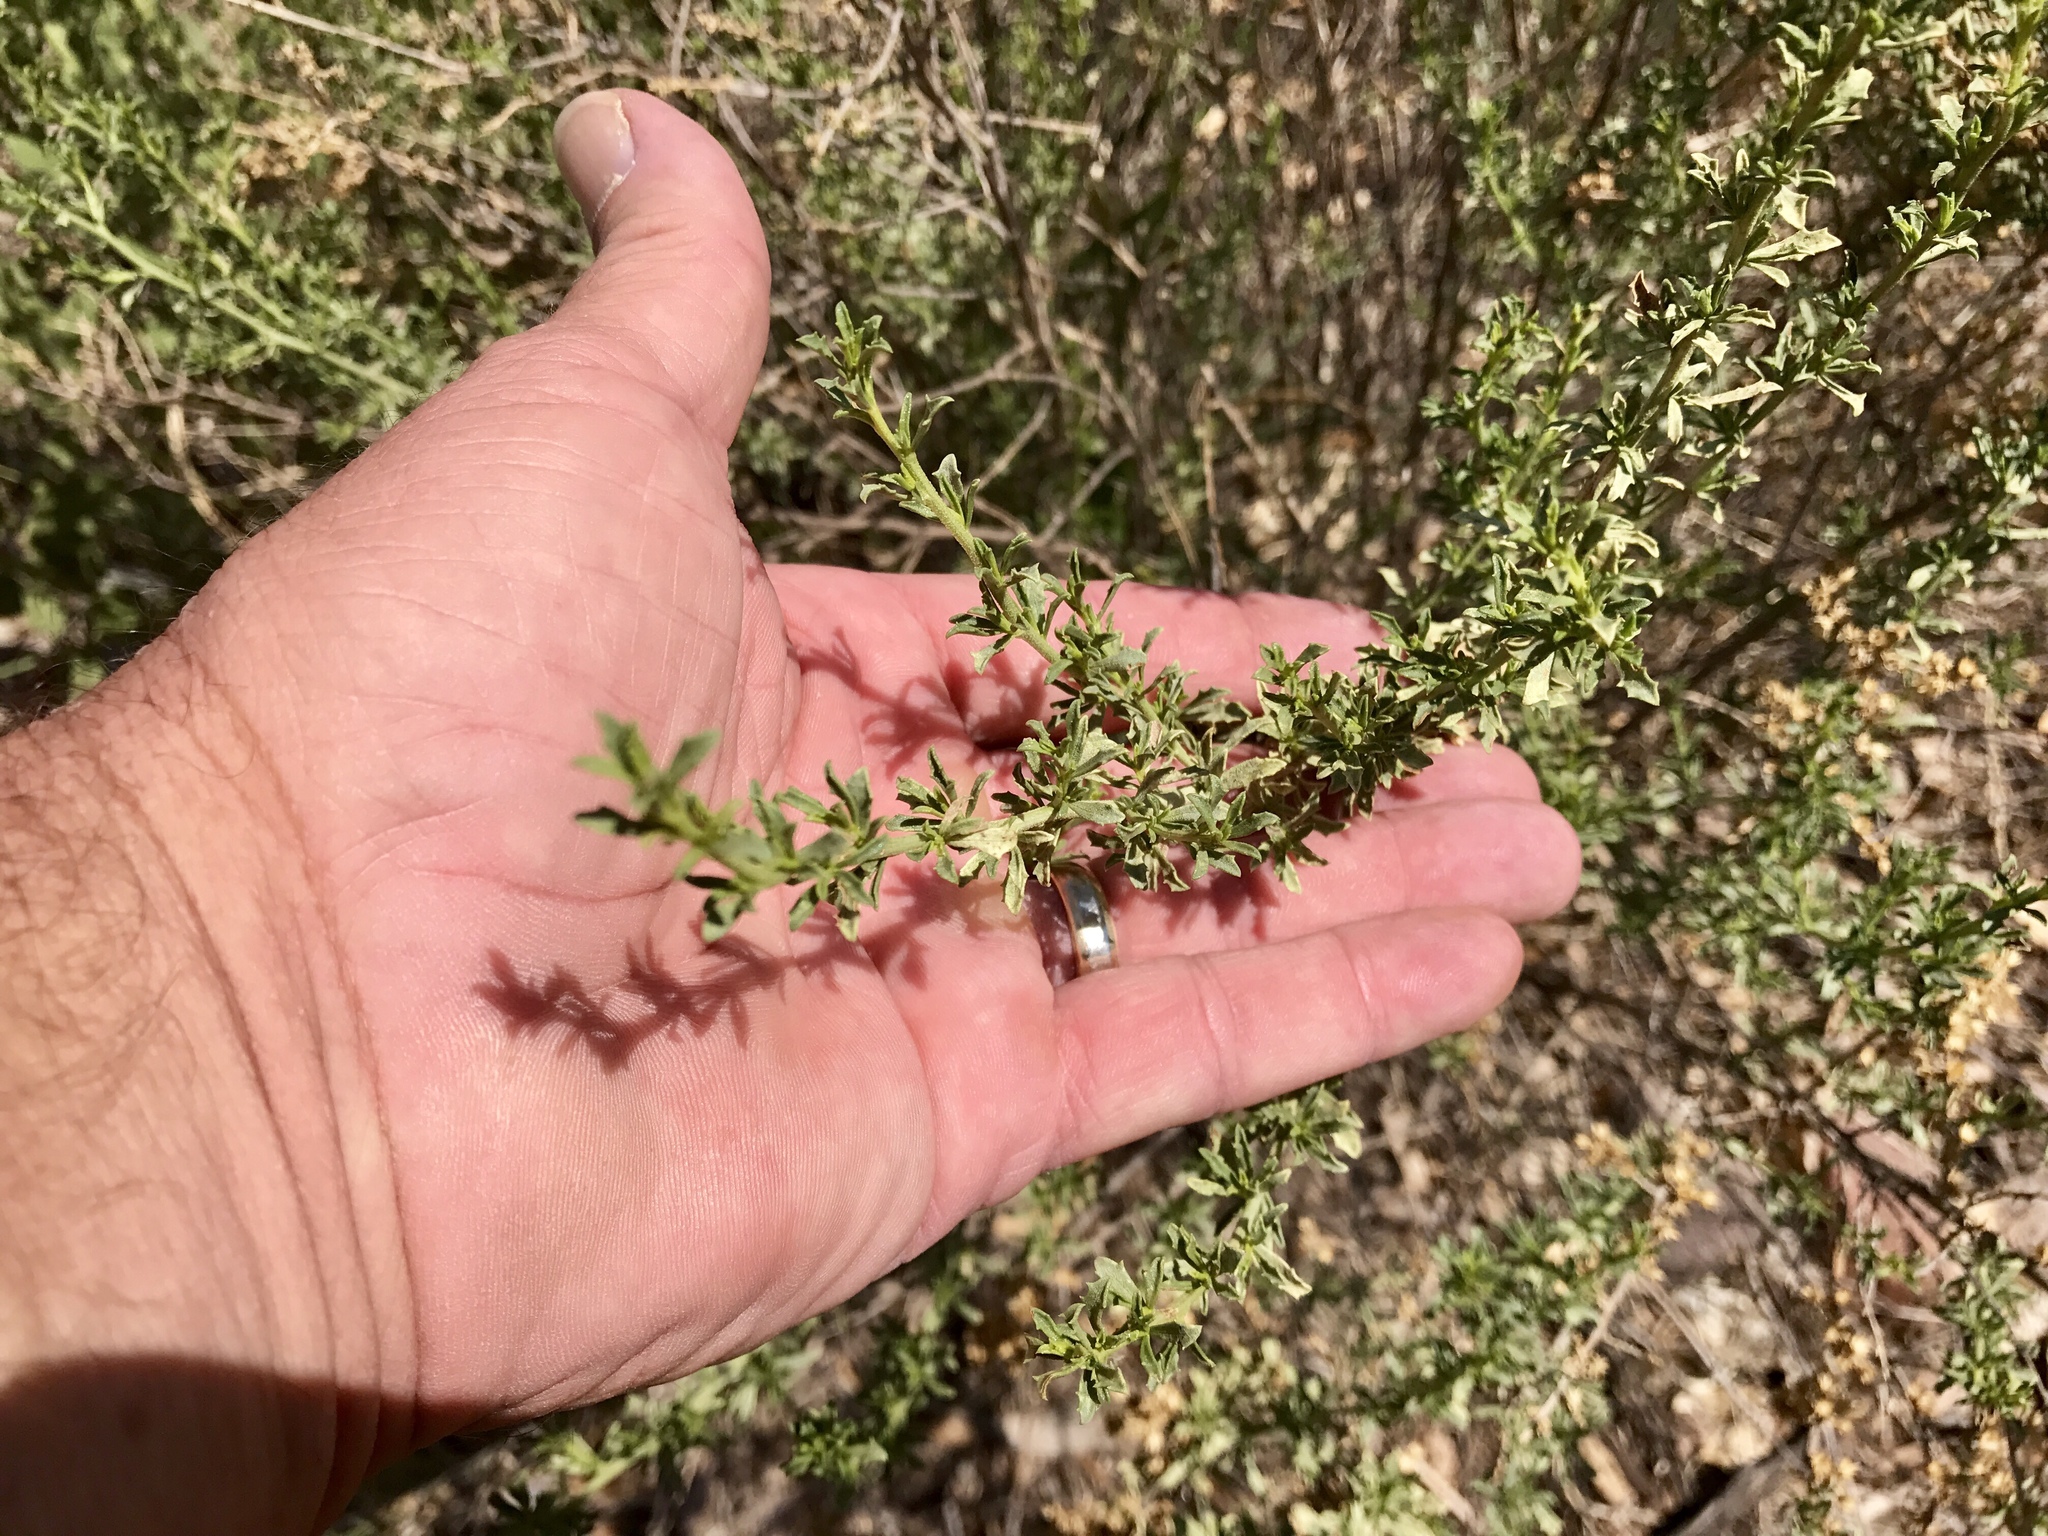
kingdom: Plantae
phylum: Tracheophyta
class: Magnoliopsida
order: Asterales
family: Asteraceae
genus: Baccharis
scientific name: Baccharis pteronioides
